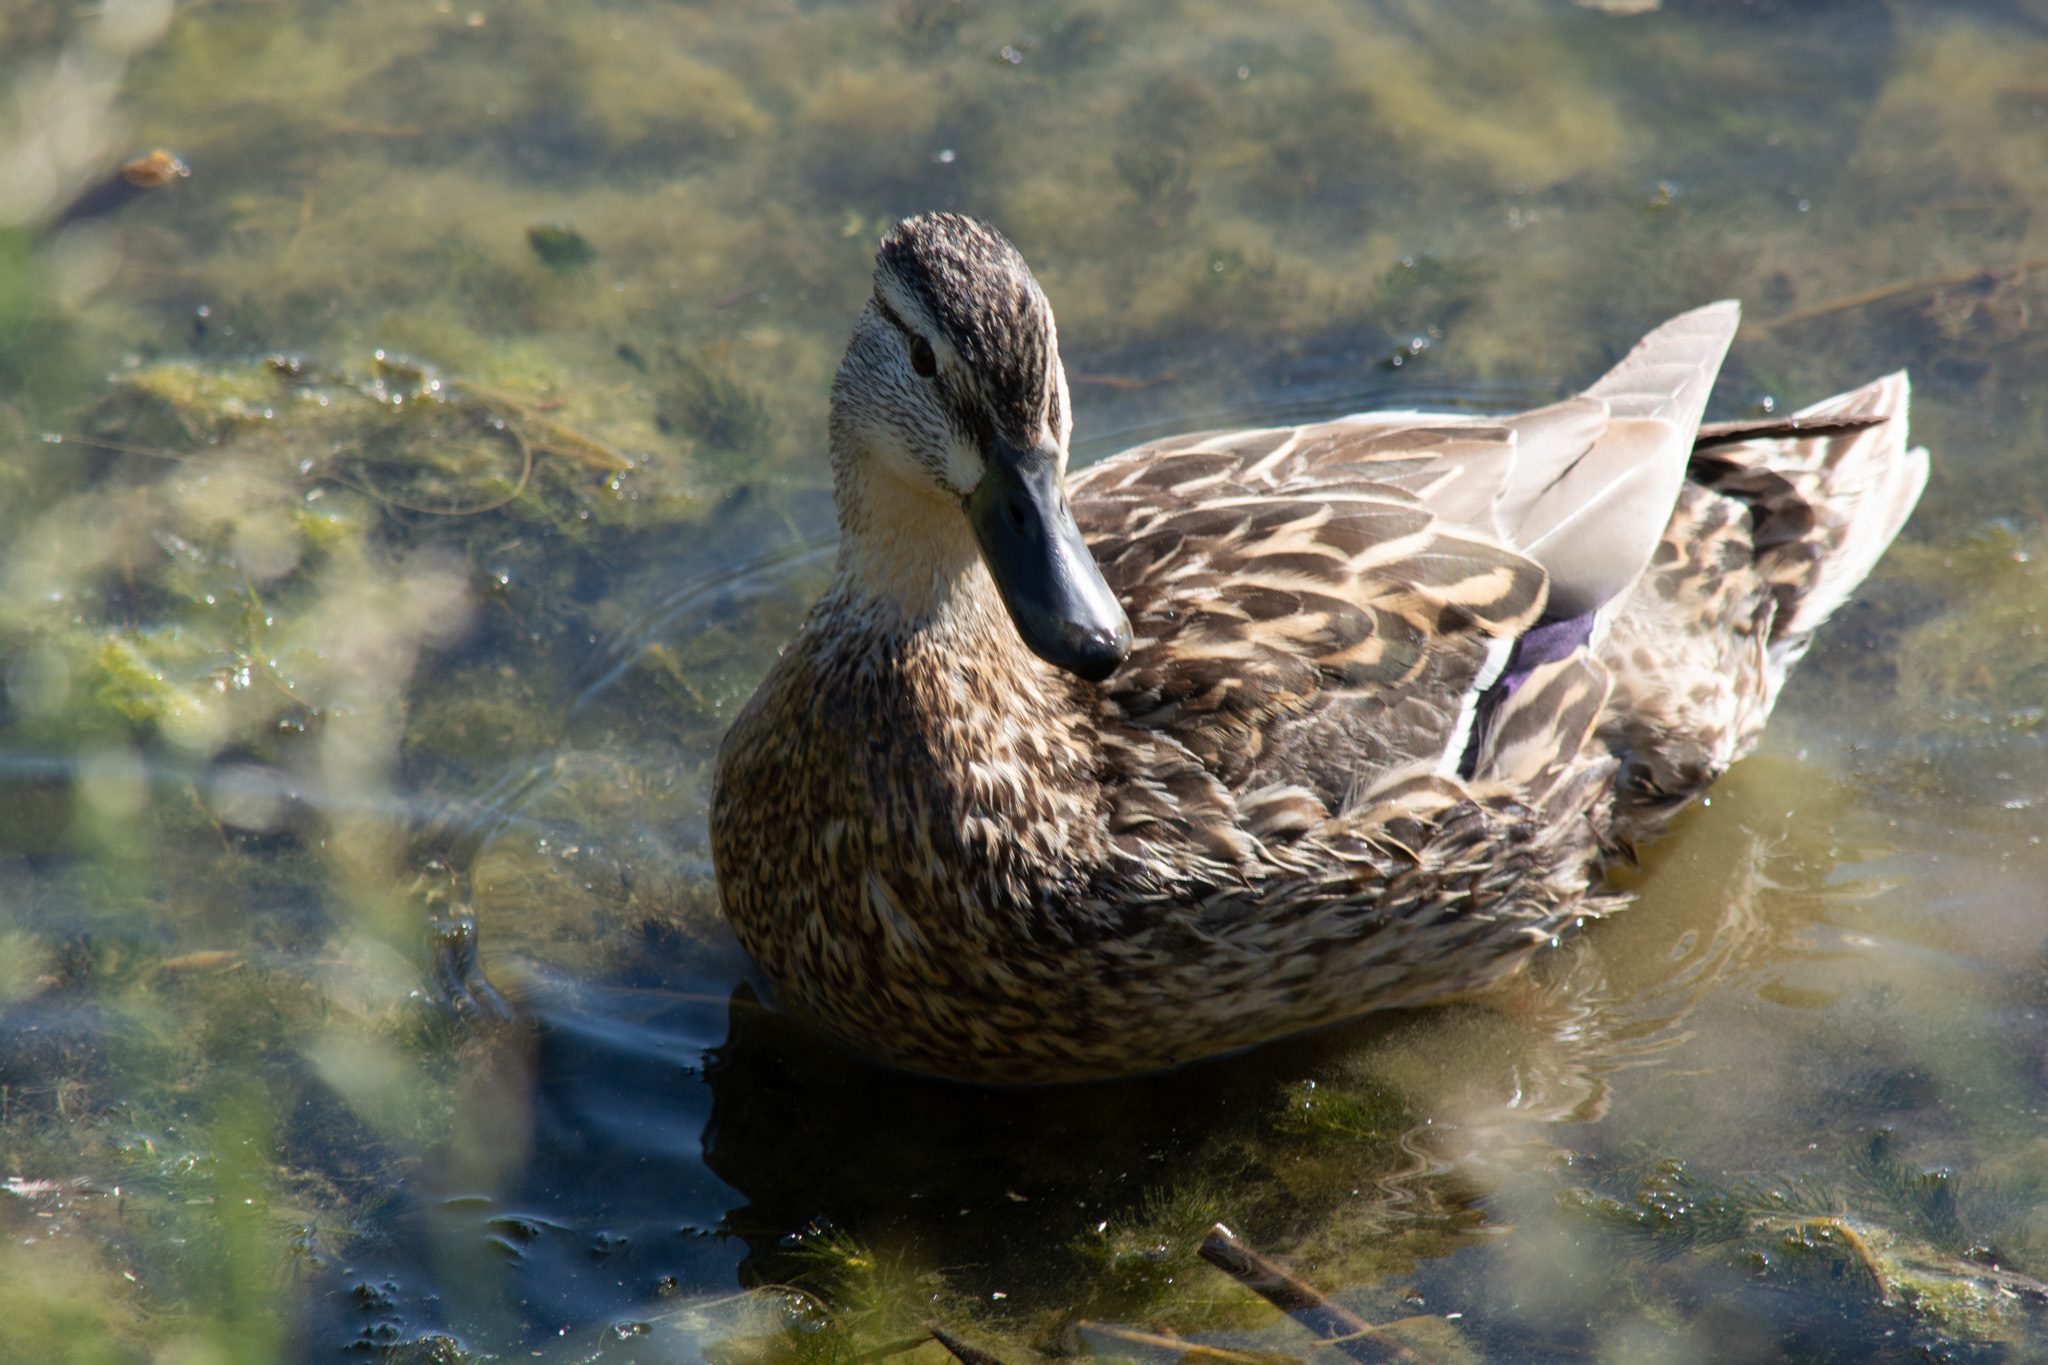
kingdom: Animalia
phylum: Chordata
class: Aves
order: Anseriformes
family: Anatidae
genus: Anas
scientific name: Anas platyrhynchos
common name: Mallard
